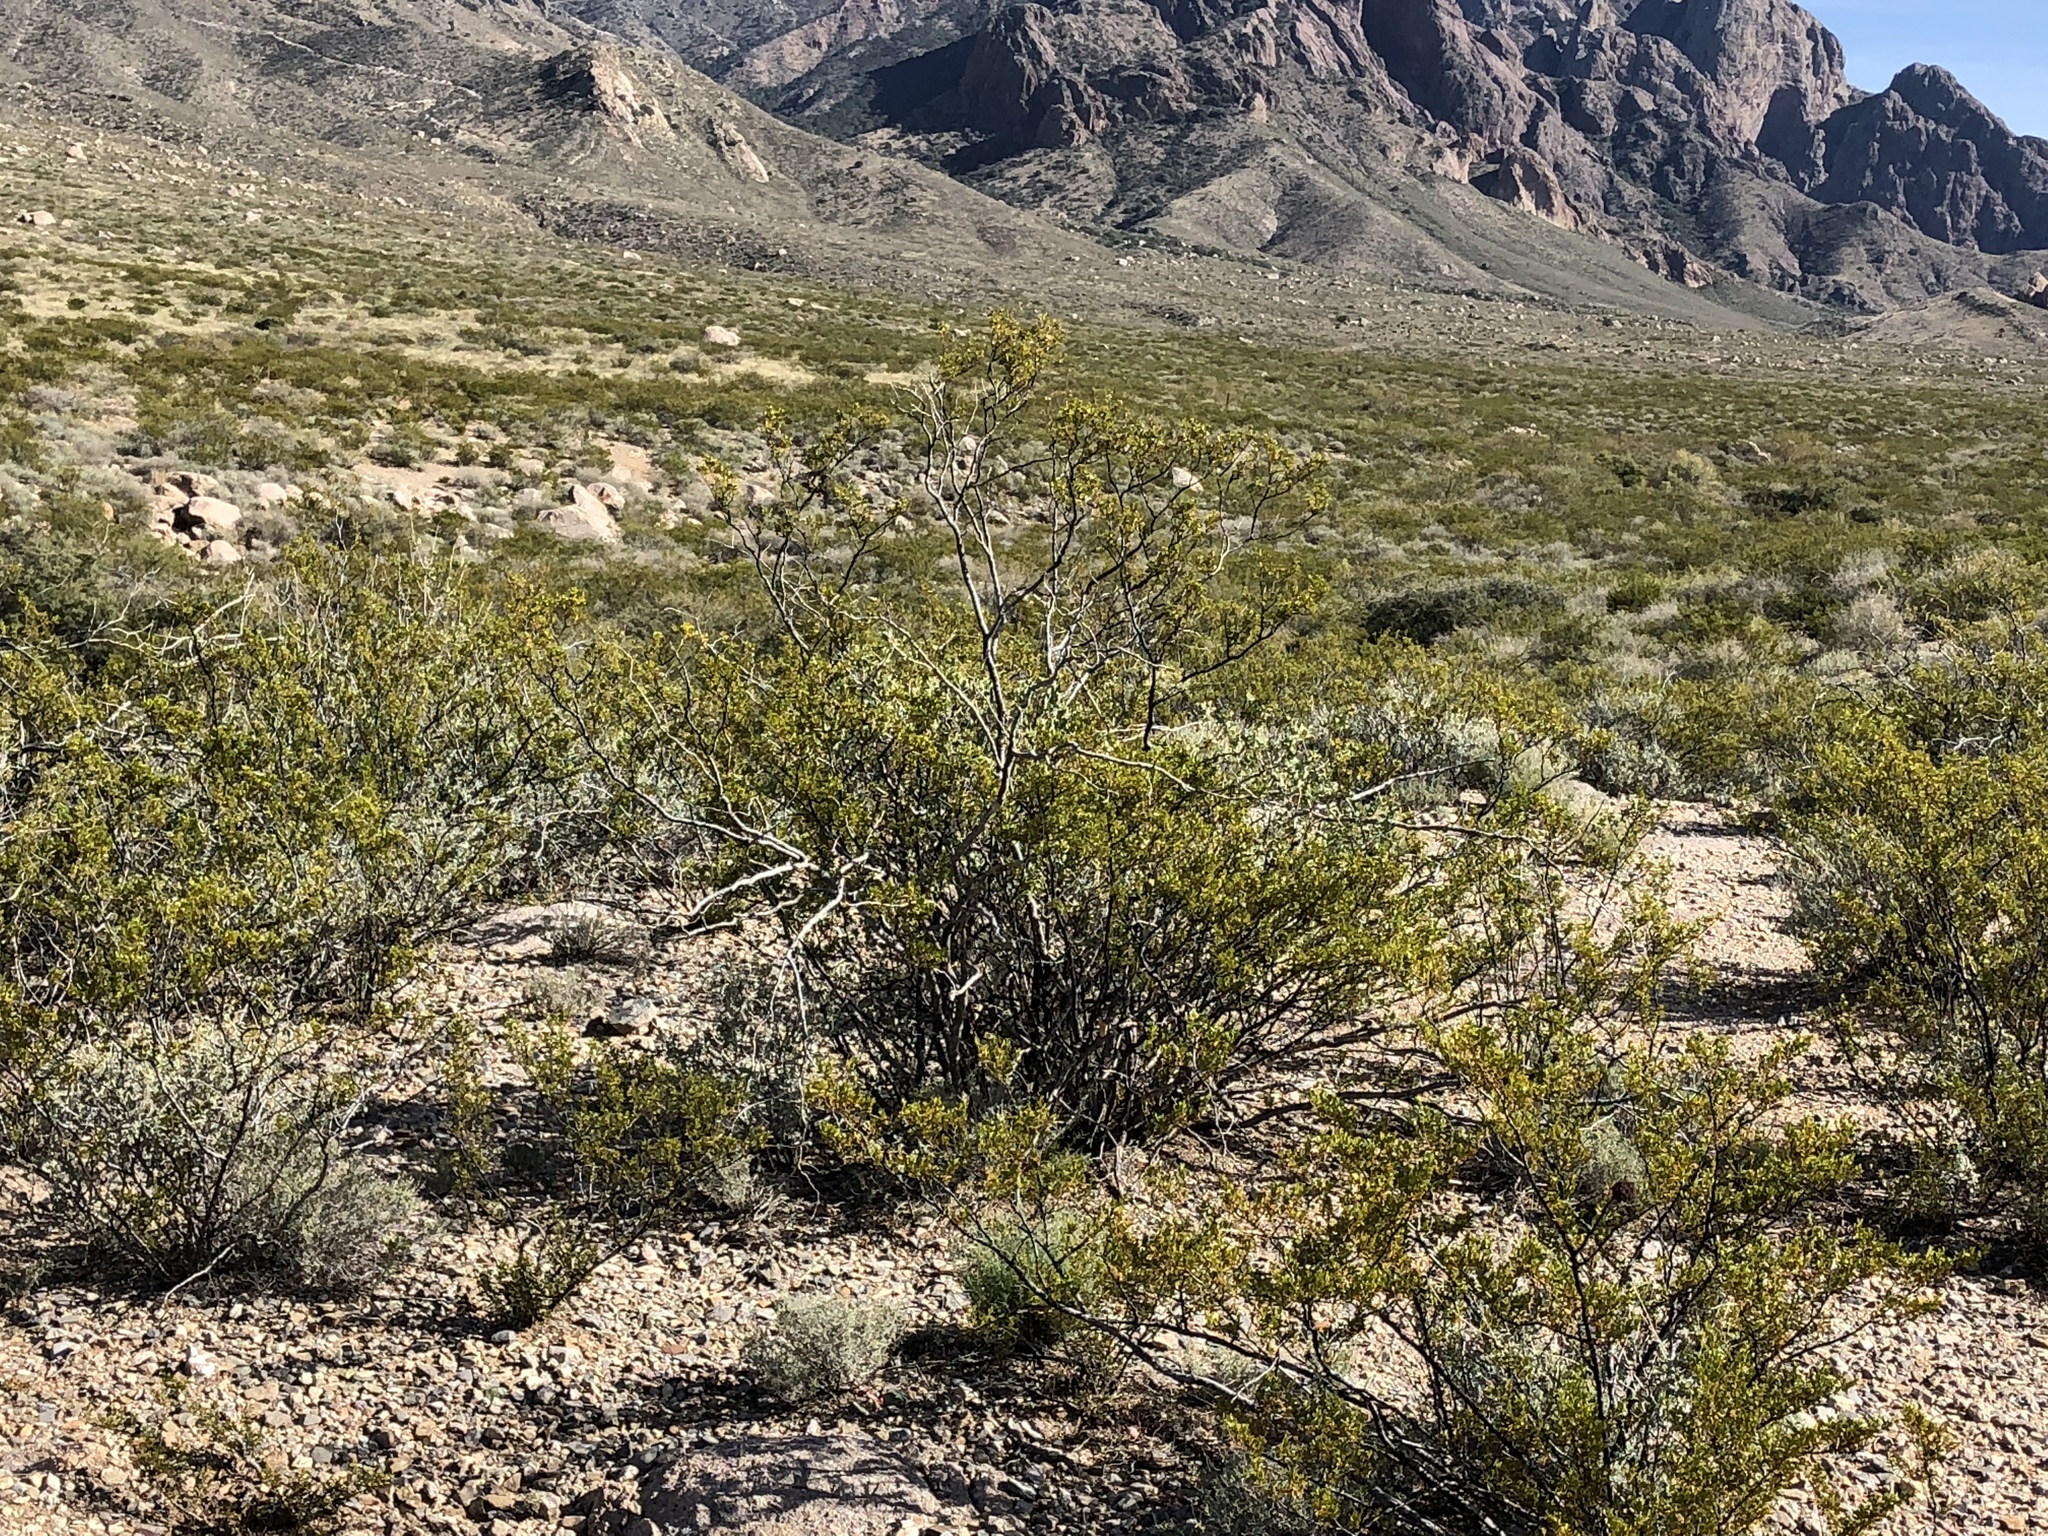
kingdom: Plantae
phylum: Tracheophyta
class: Magnoliopsida
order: Zygophyllales
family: Zygophyllaceae
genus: Larrea
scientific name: Larrea tridentata
